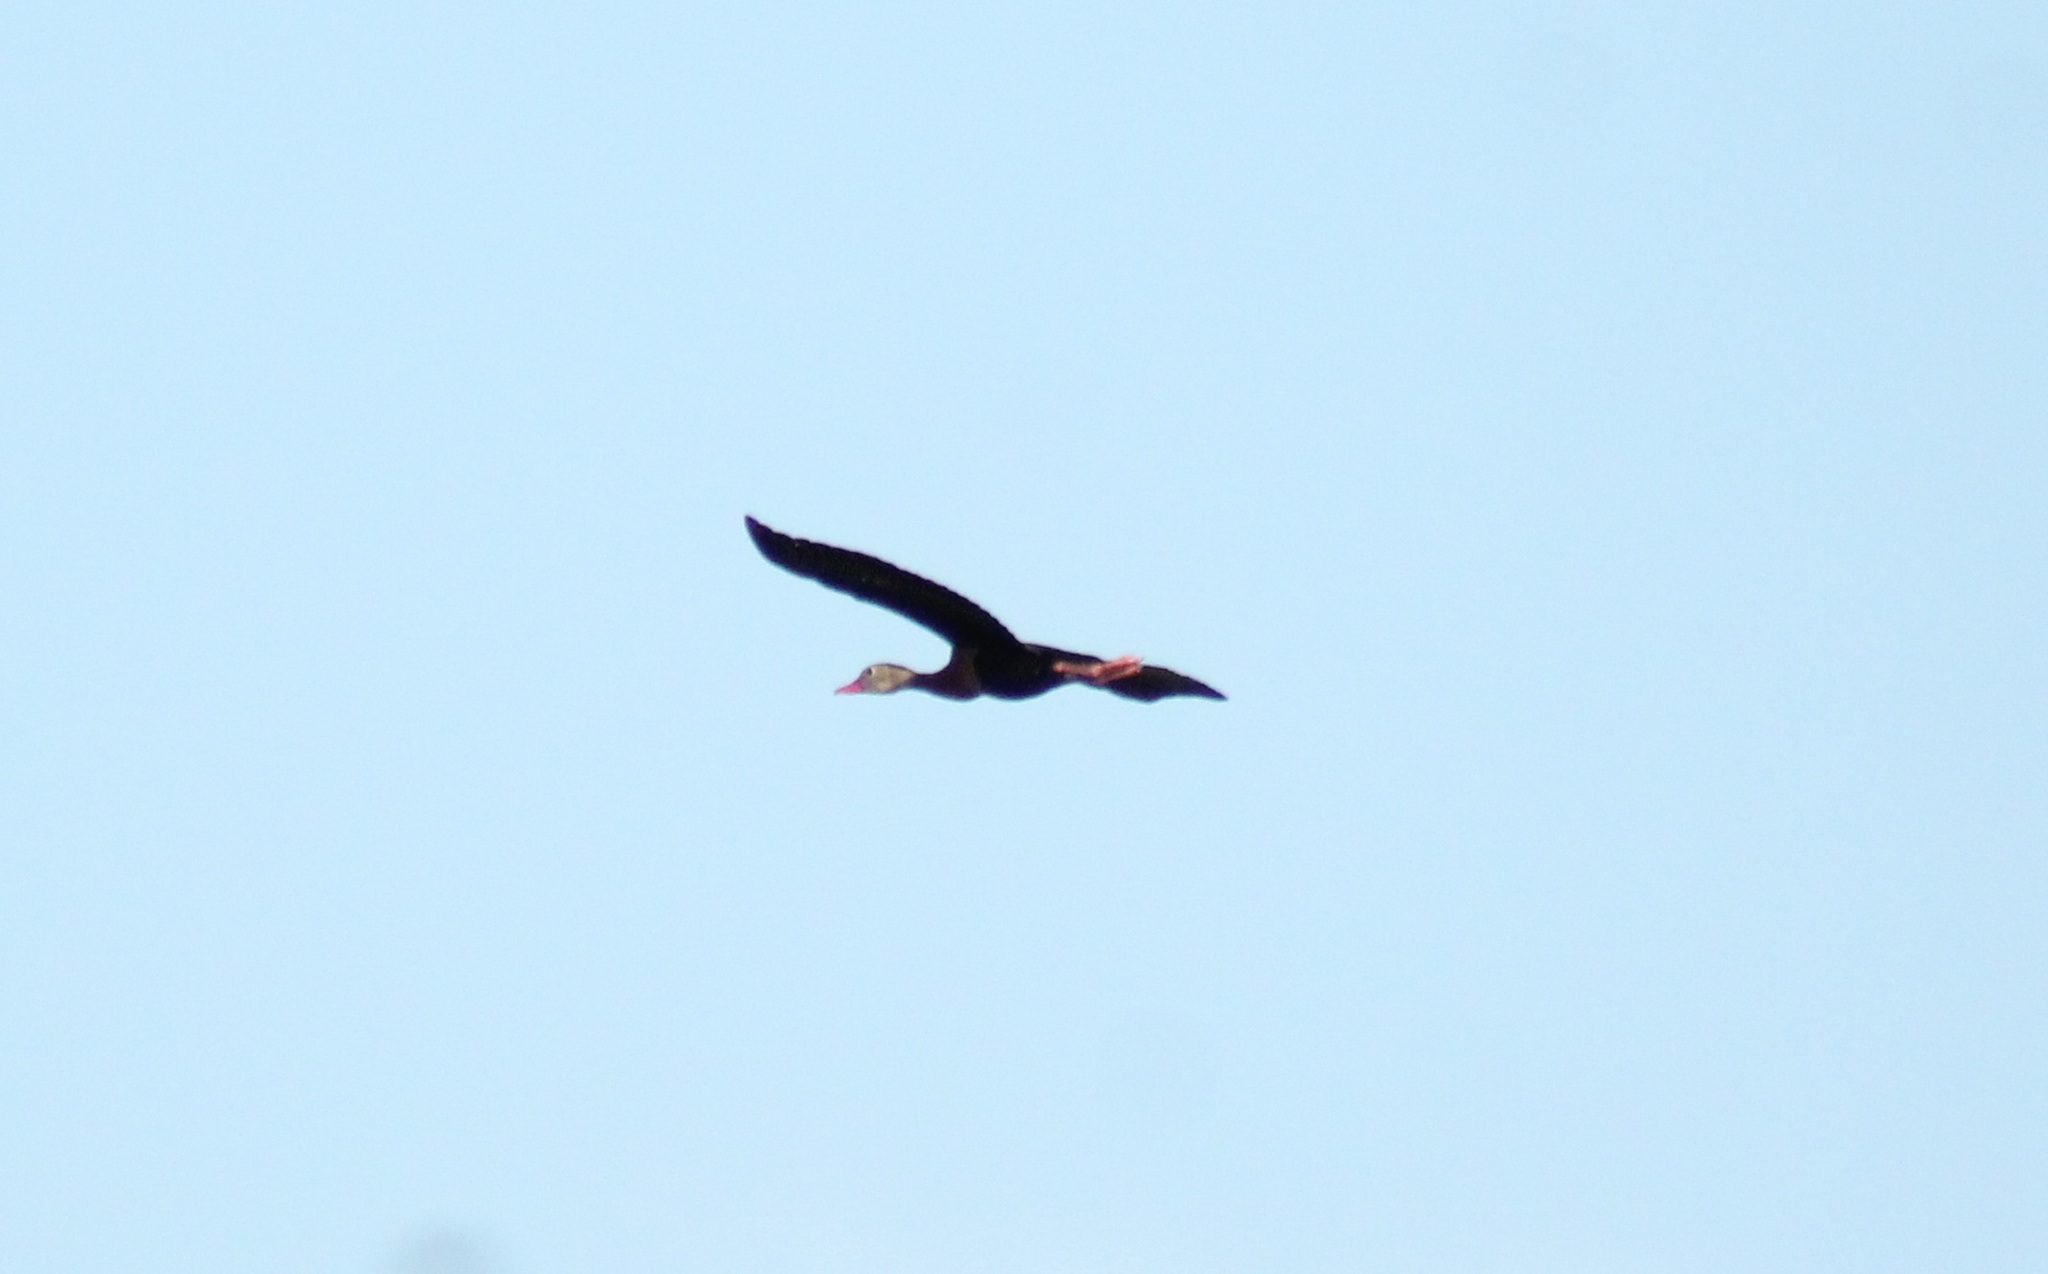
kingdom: Animalia
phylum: Chordata
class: Aves
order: Anseriformes
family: Anatidae
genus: Dendrocygna
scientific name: Dendrocygna autumnalis
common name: Black-bellied whistling duck
